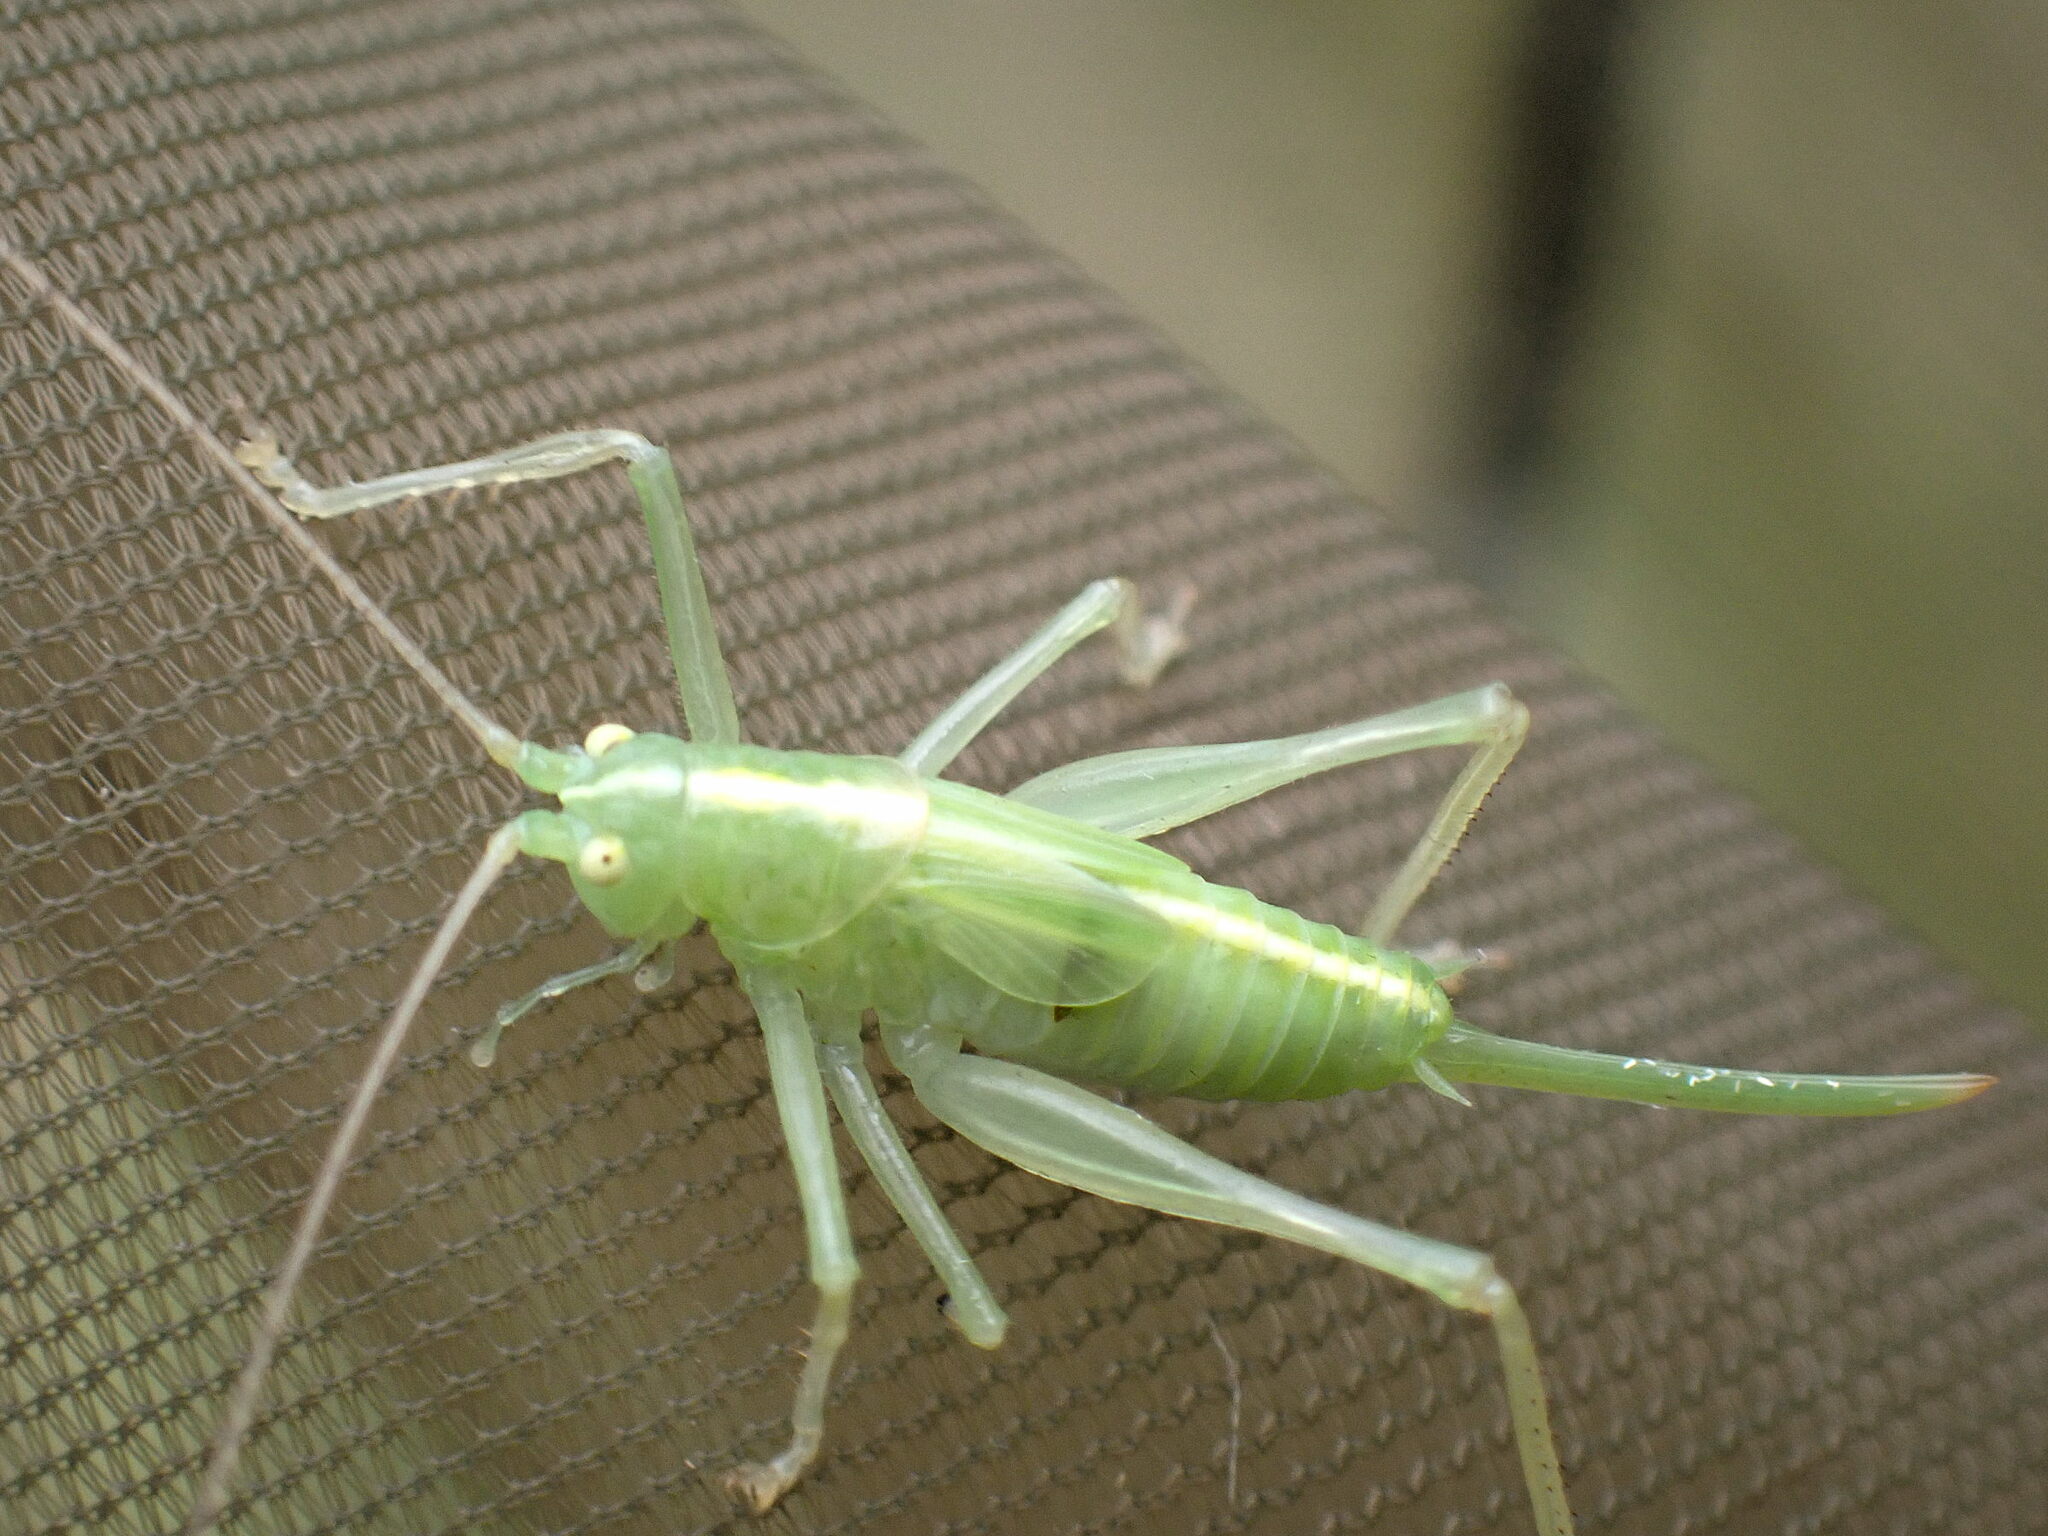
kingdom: Animalia
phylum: Arthropoda
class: Insecta
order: Orthoptera
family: Tettigoniidae
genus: Meconema
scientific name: Meconema thalassinum
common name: Oak bush-cricket
